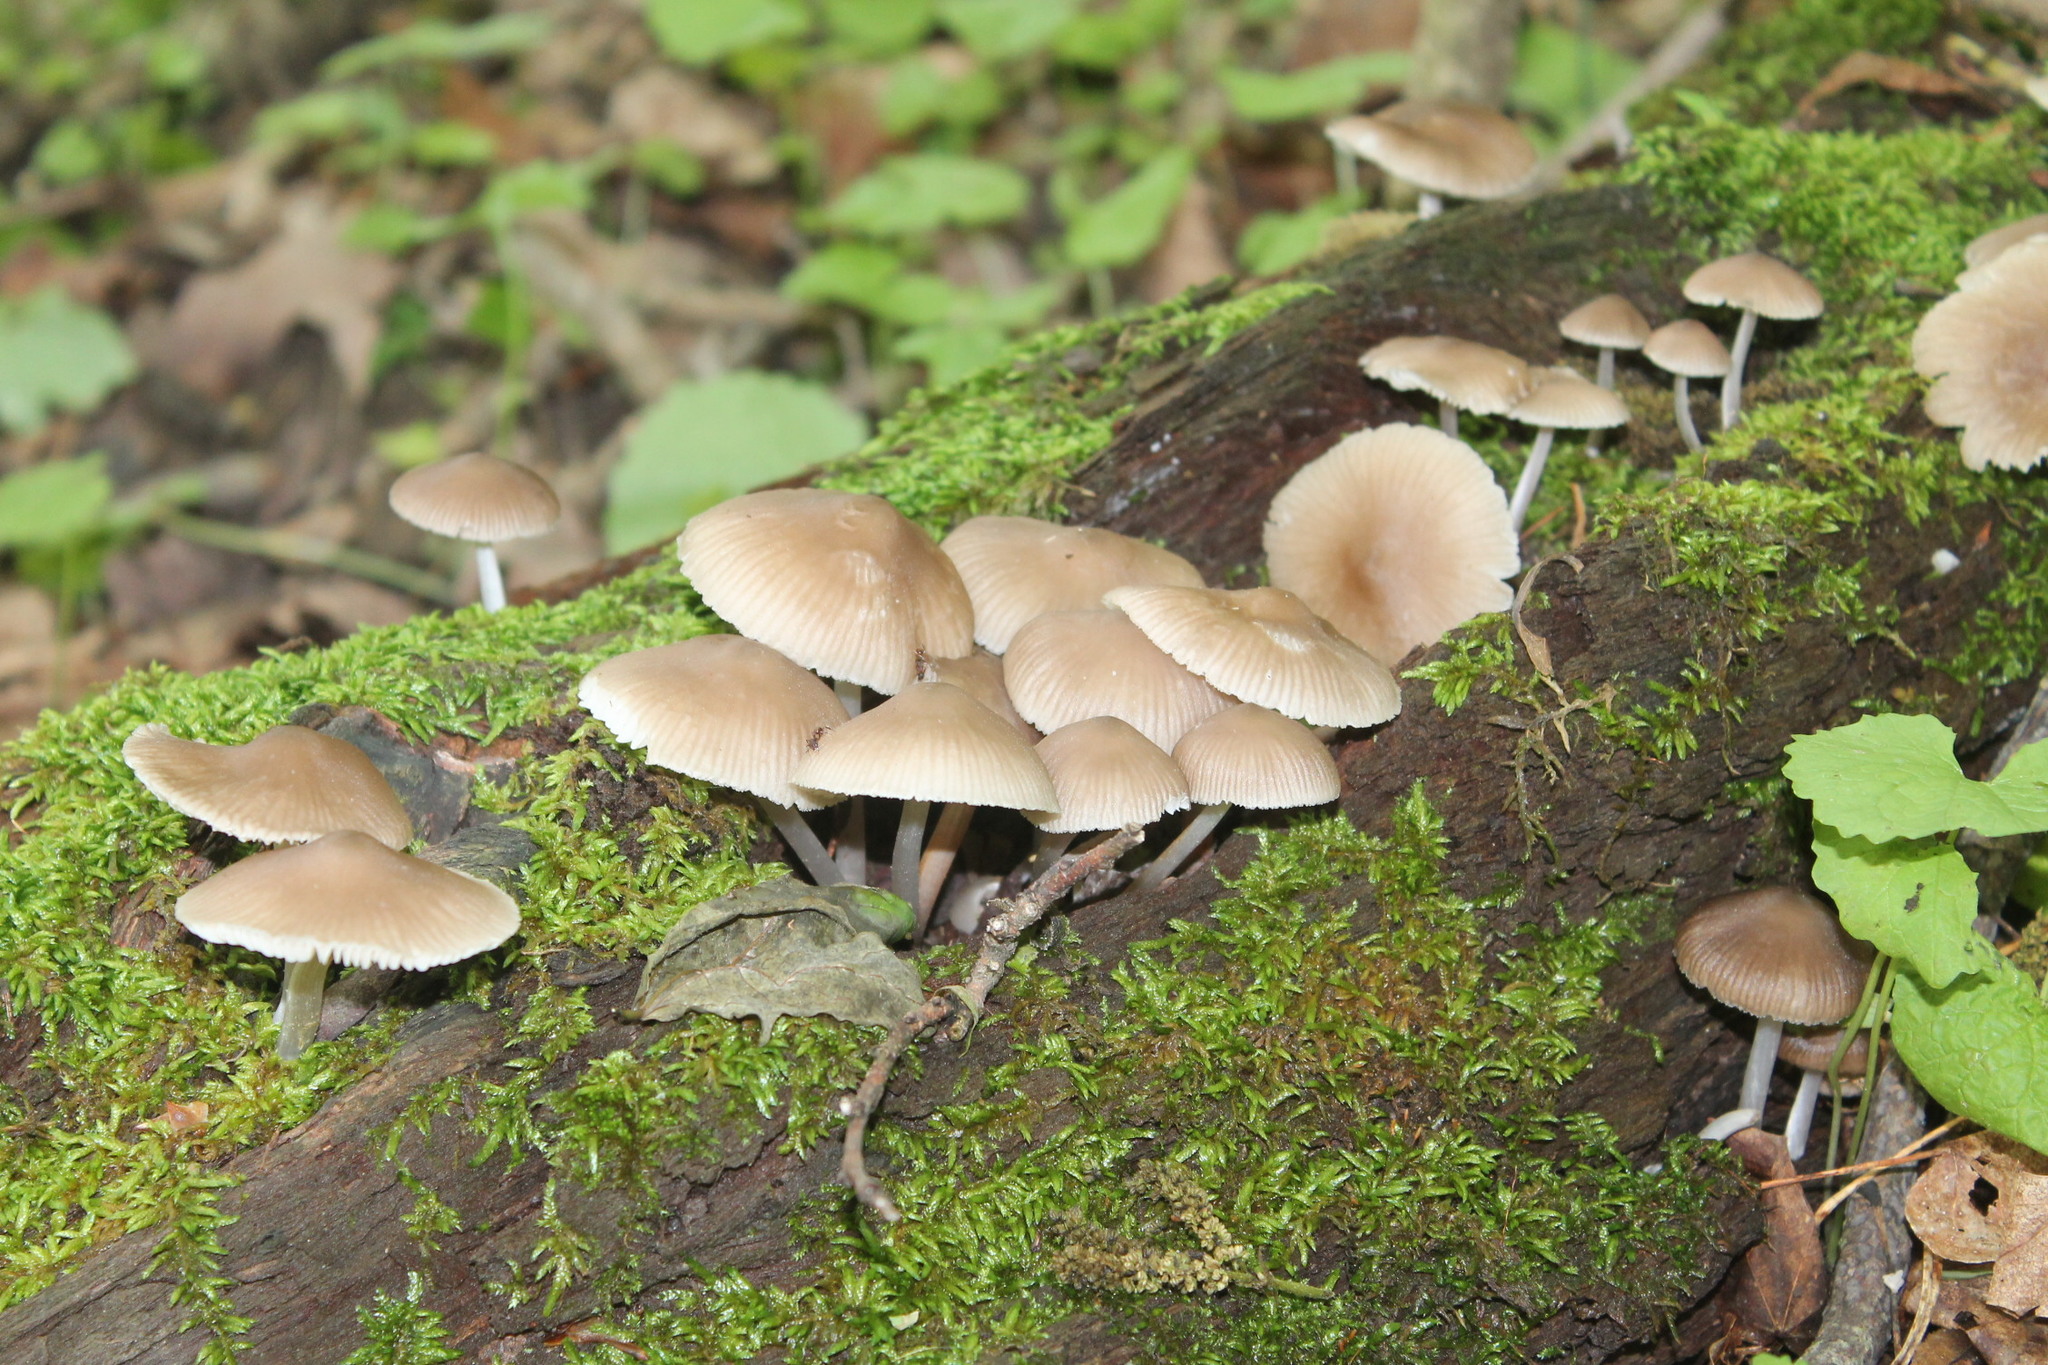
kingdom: Fungi
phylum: Basidiomycota
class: Agaricomycetes
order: Agaricales
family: Mycenaceae
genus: Mycena
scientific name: Mycena galericulata
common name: Bonnet mycena
